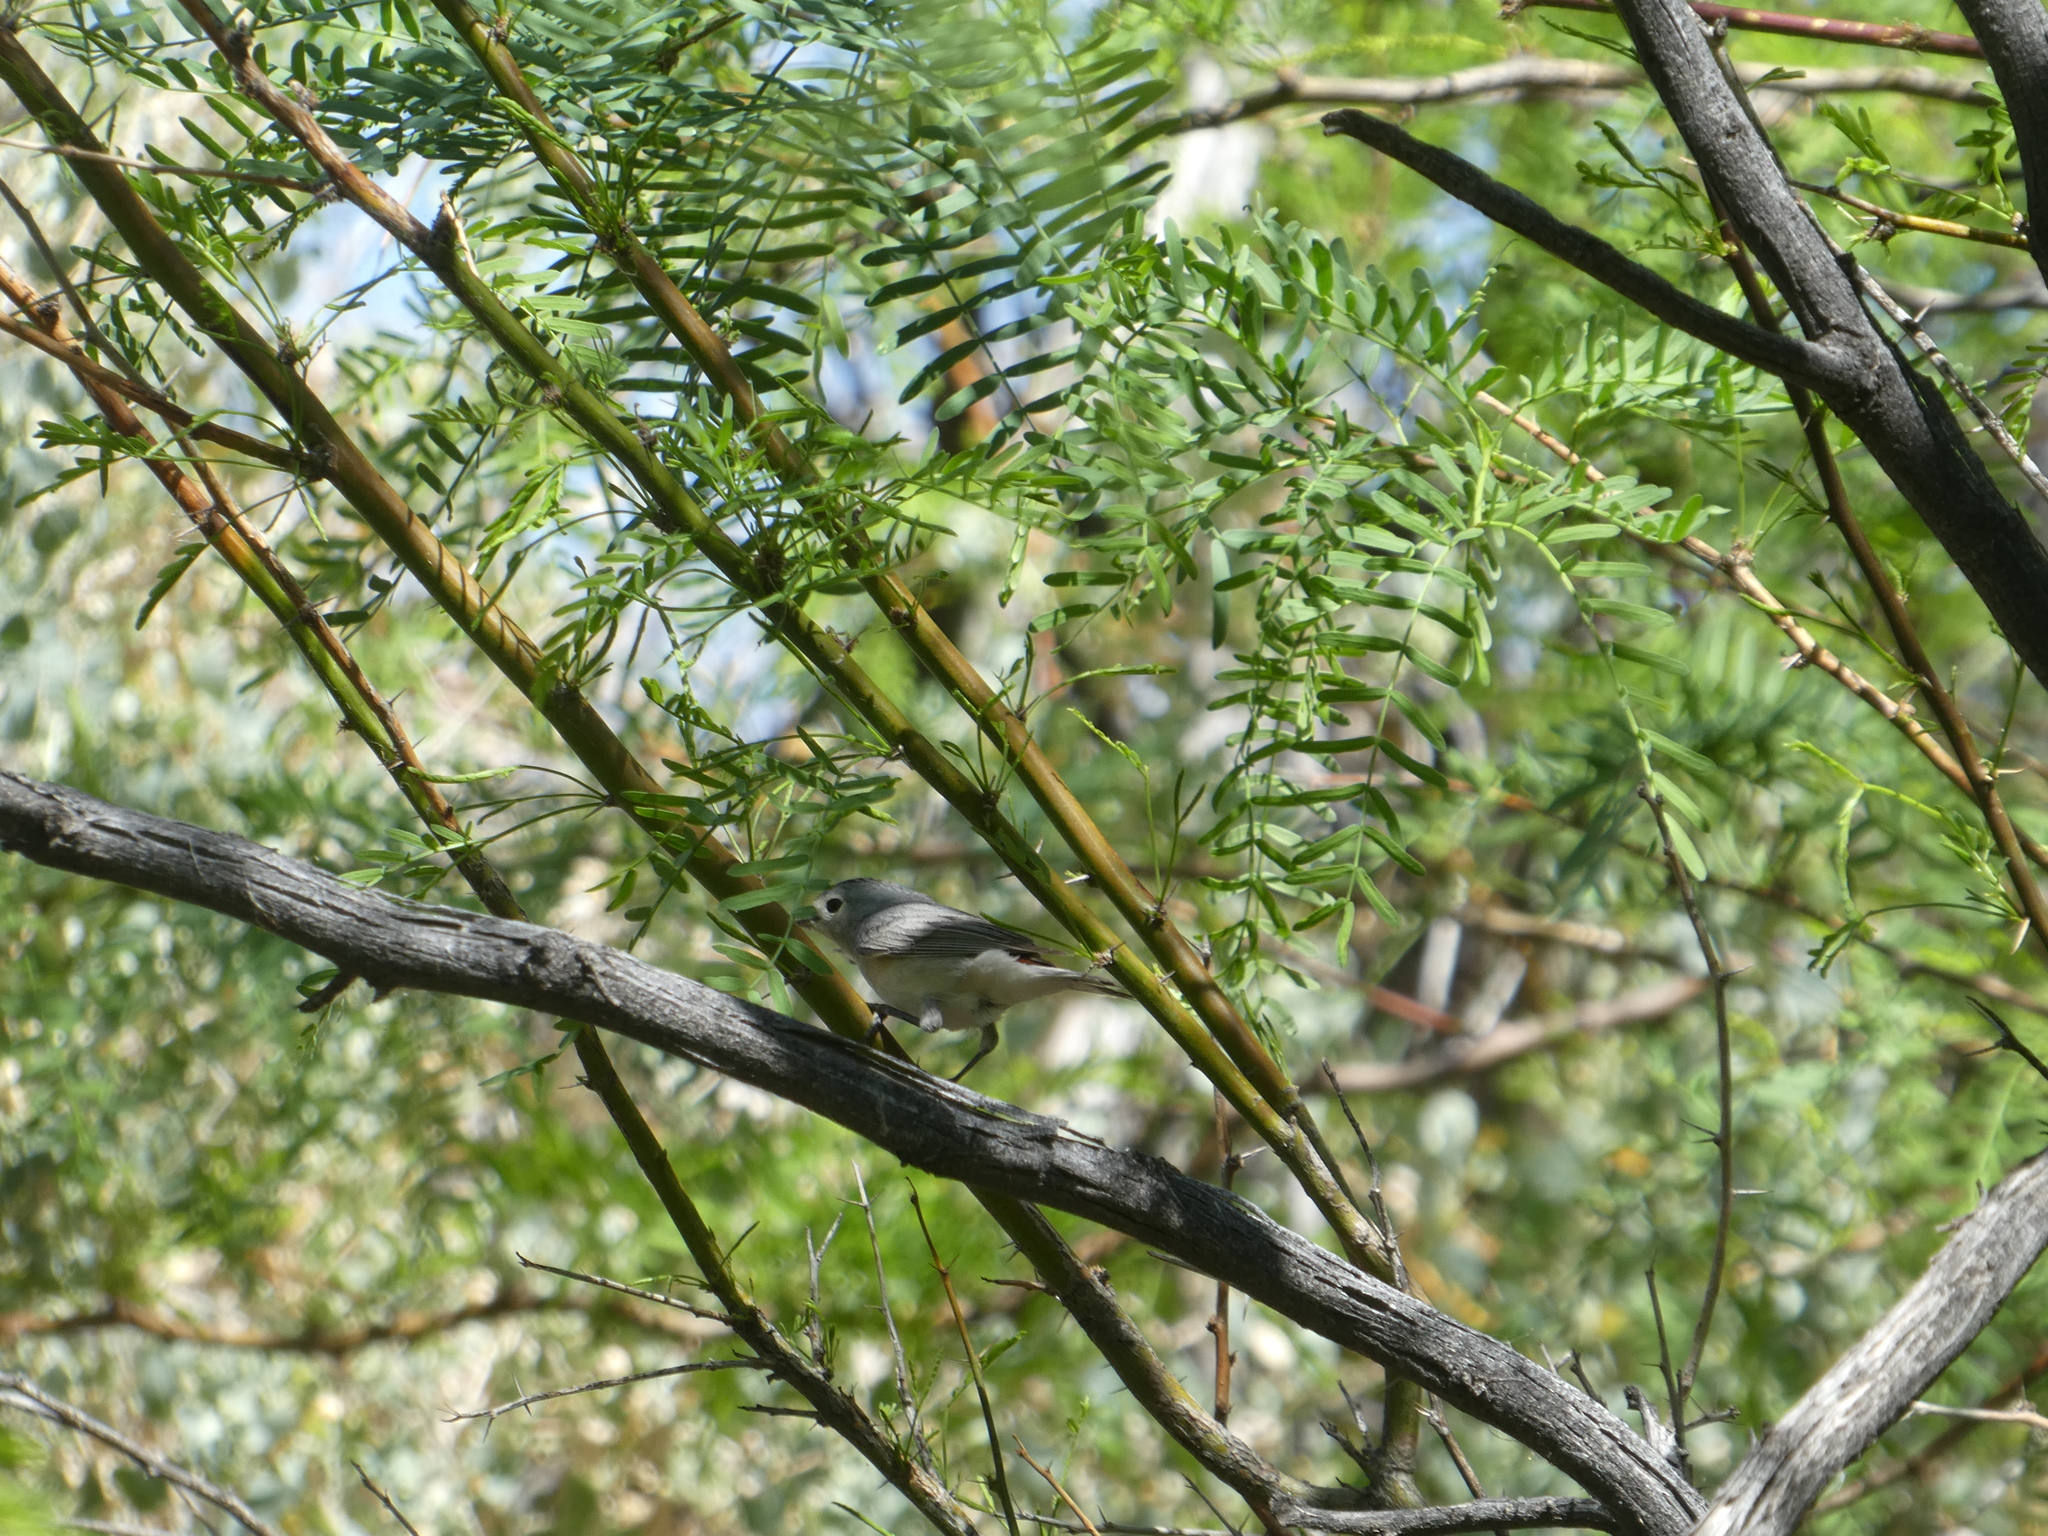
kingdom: Animalia
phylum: Chordata
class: Aves
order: Passeriformes
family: Parulidae
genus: Leiothlypis
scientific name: Leiothlypis luciae
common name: Lucy's warbler
